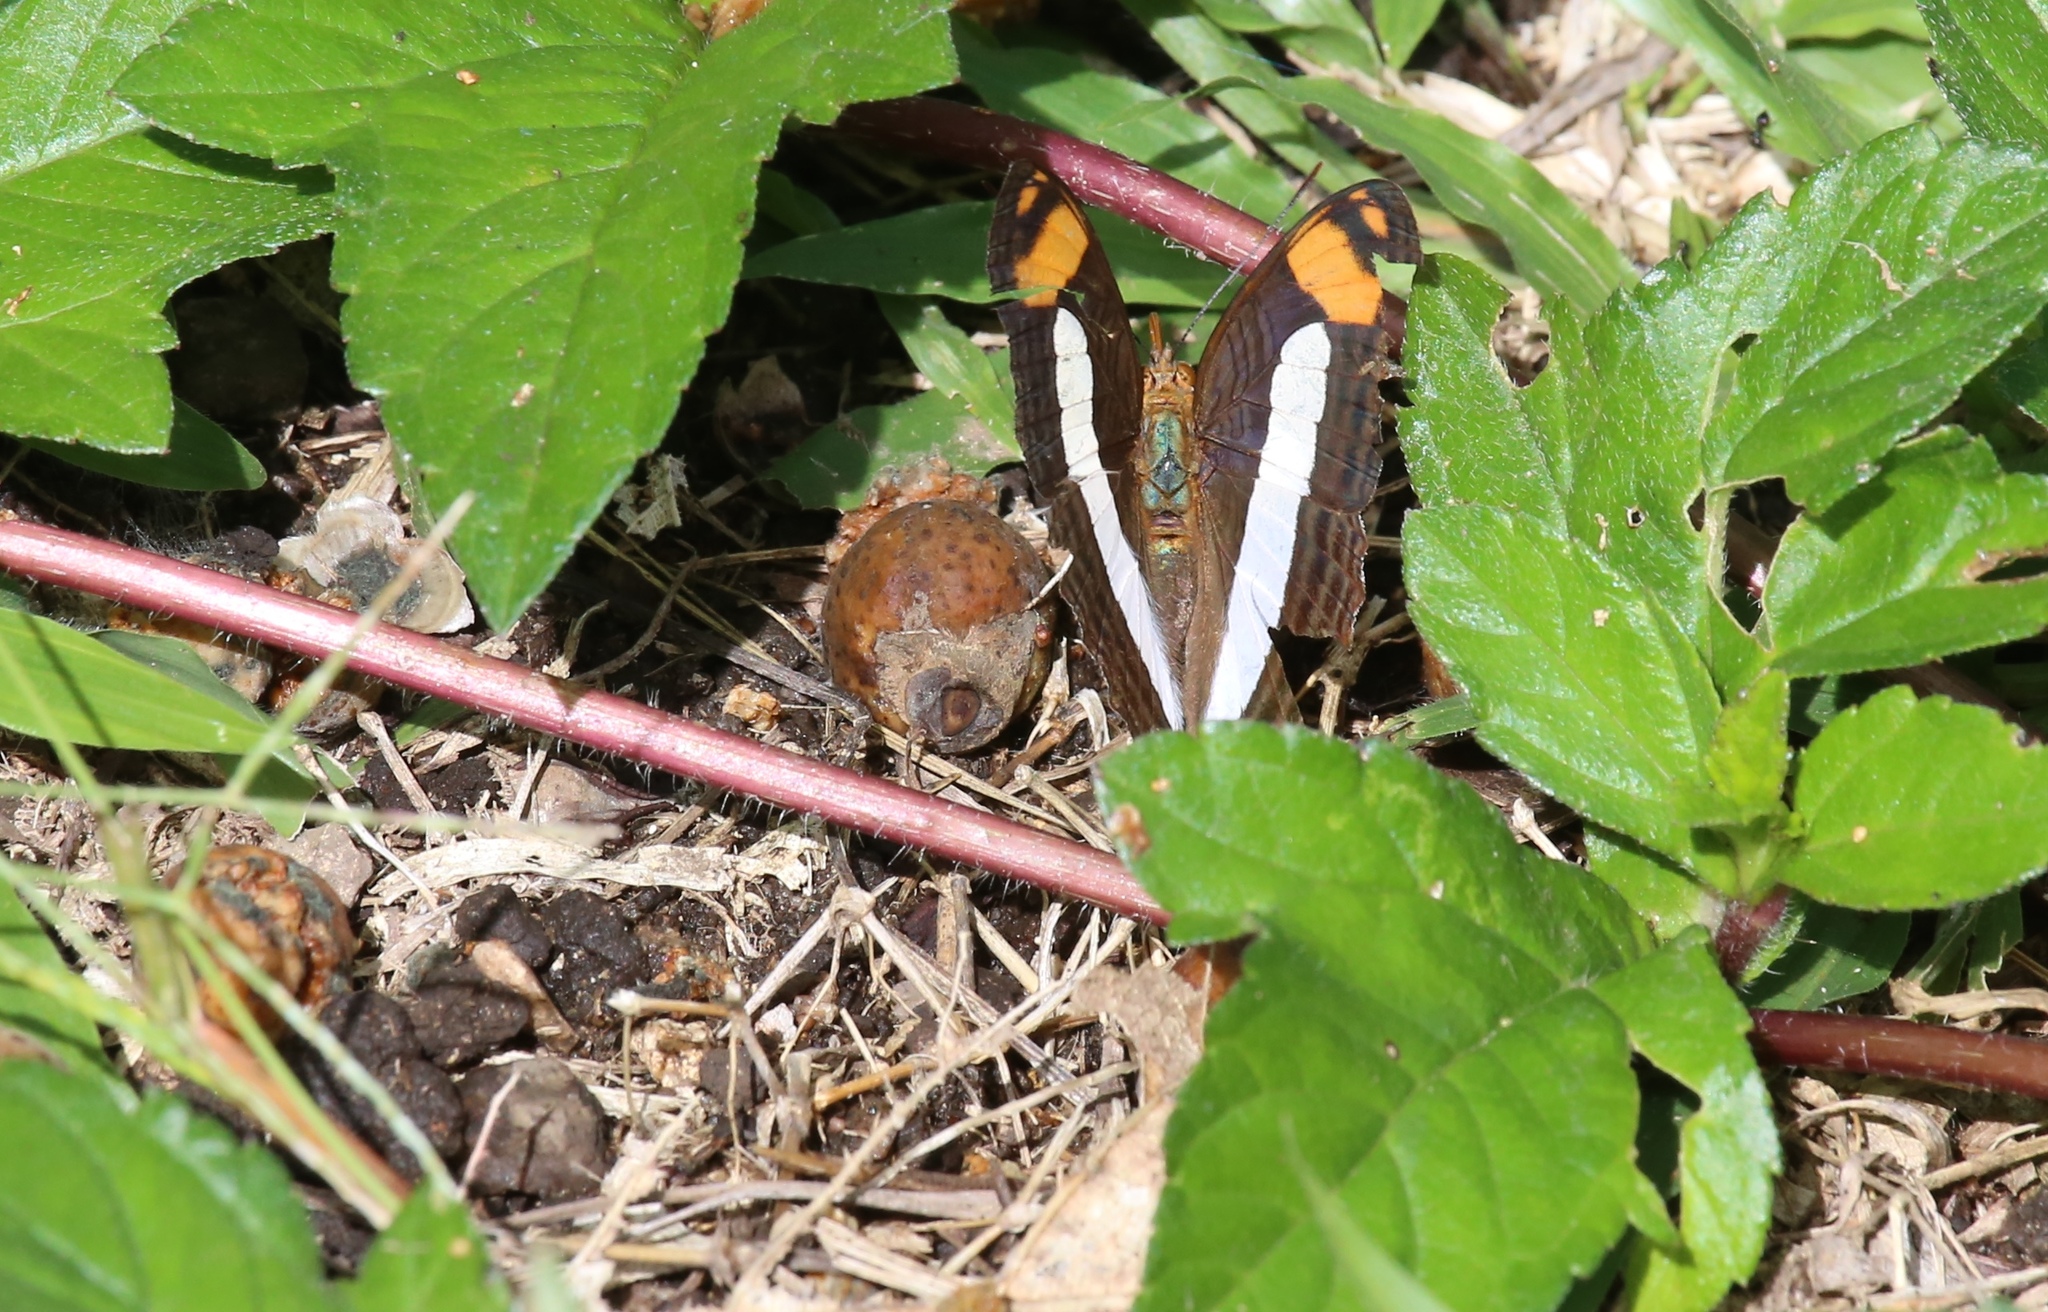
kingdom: Animalia
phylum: Arthropoda
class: Insecta
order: Lepidoptera
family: Nymphalidae
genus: Limenitis
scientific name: Limenitis naxia
